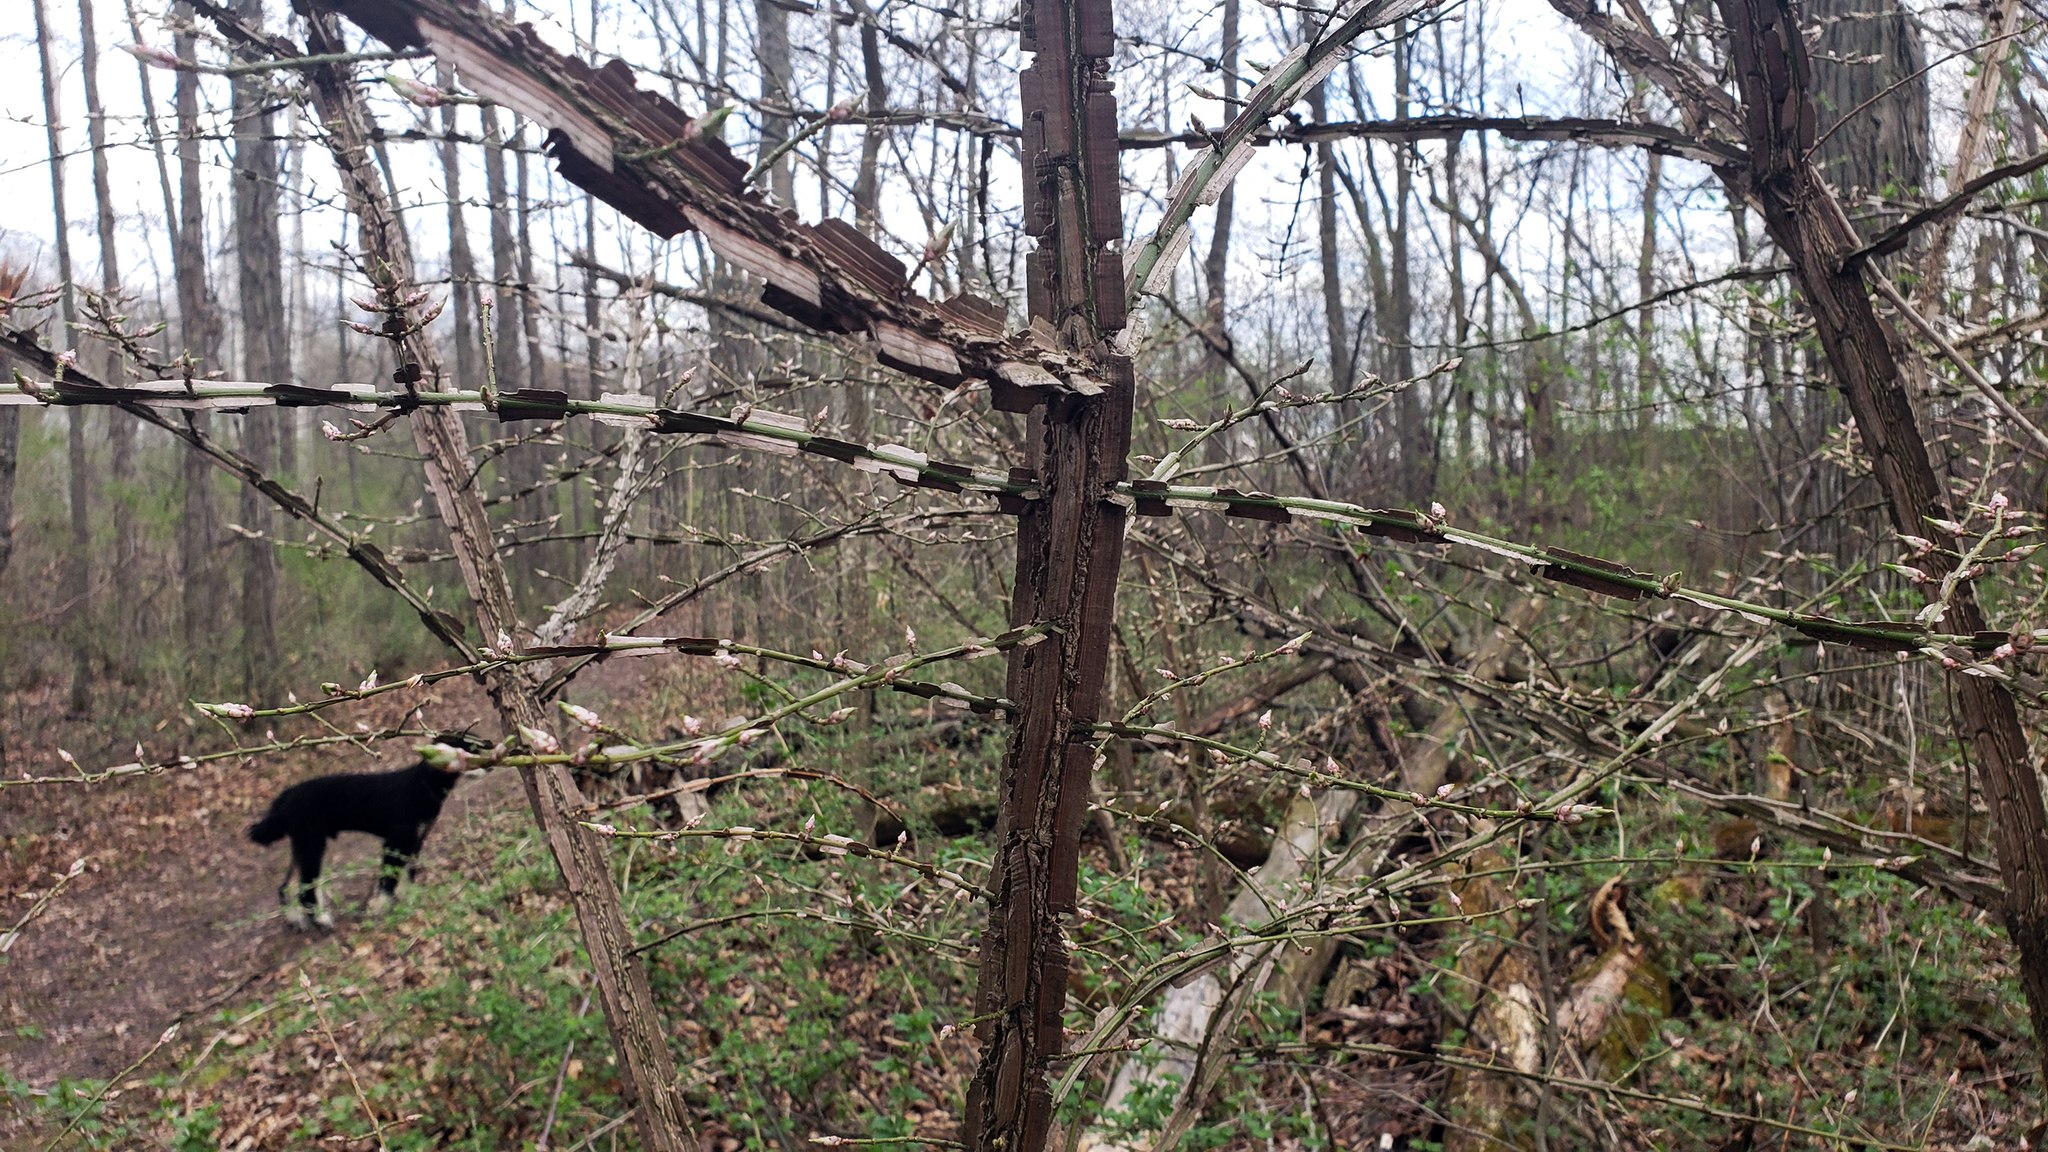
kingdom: Plantae
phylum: Tracheophyta
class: Magnoliopsida
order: Celastrales
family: Celastraceae
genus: Euonymus
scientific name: Euonymus alatus
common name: Winged euonymus
